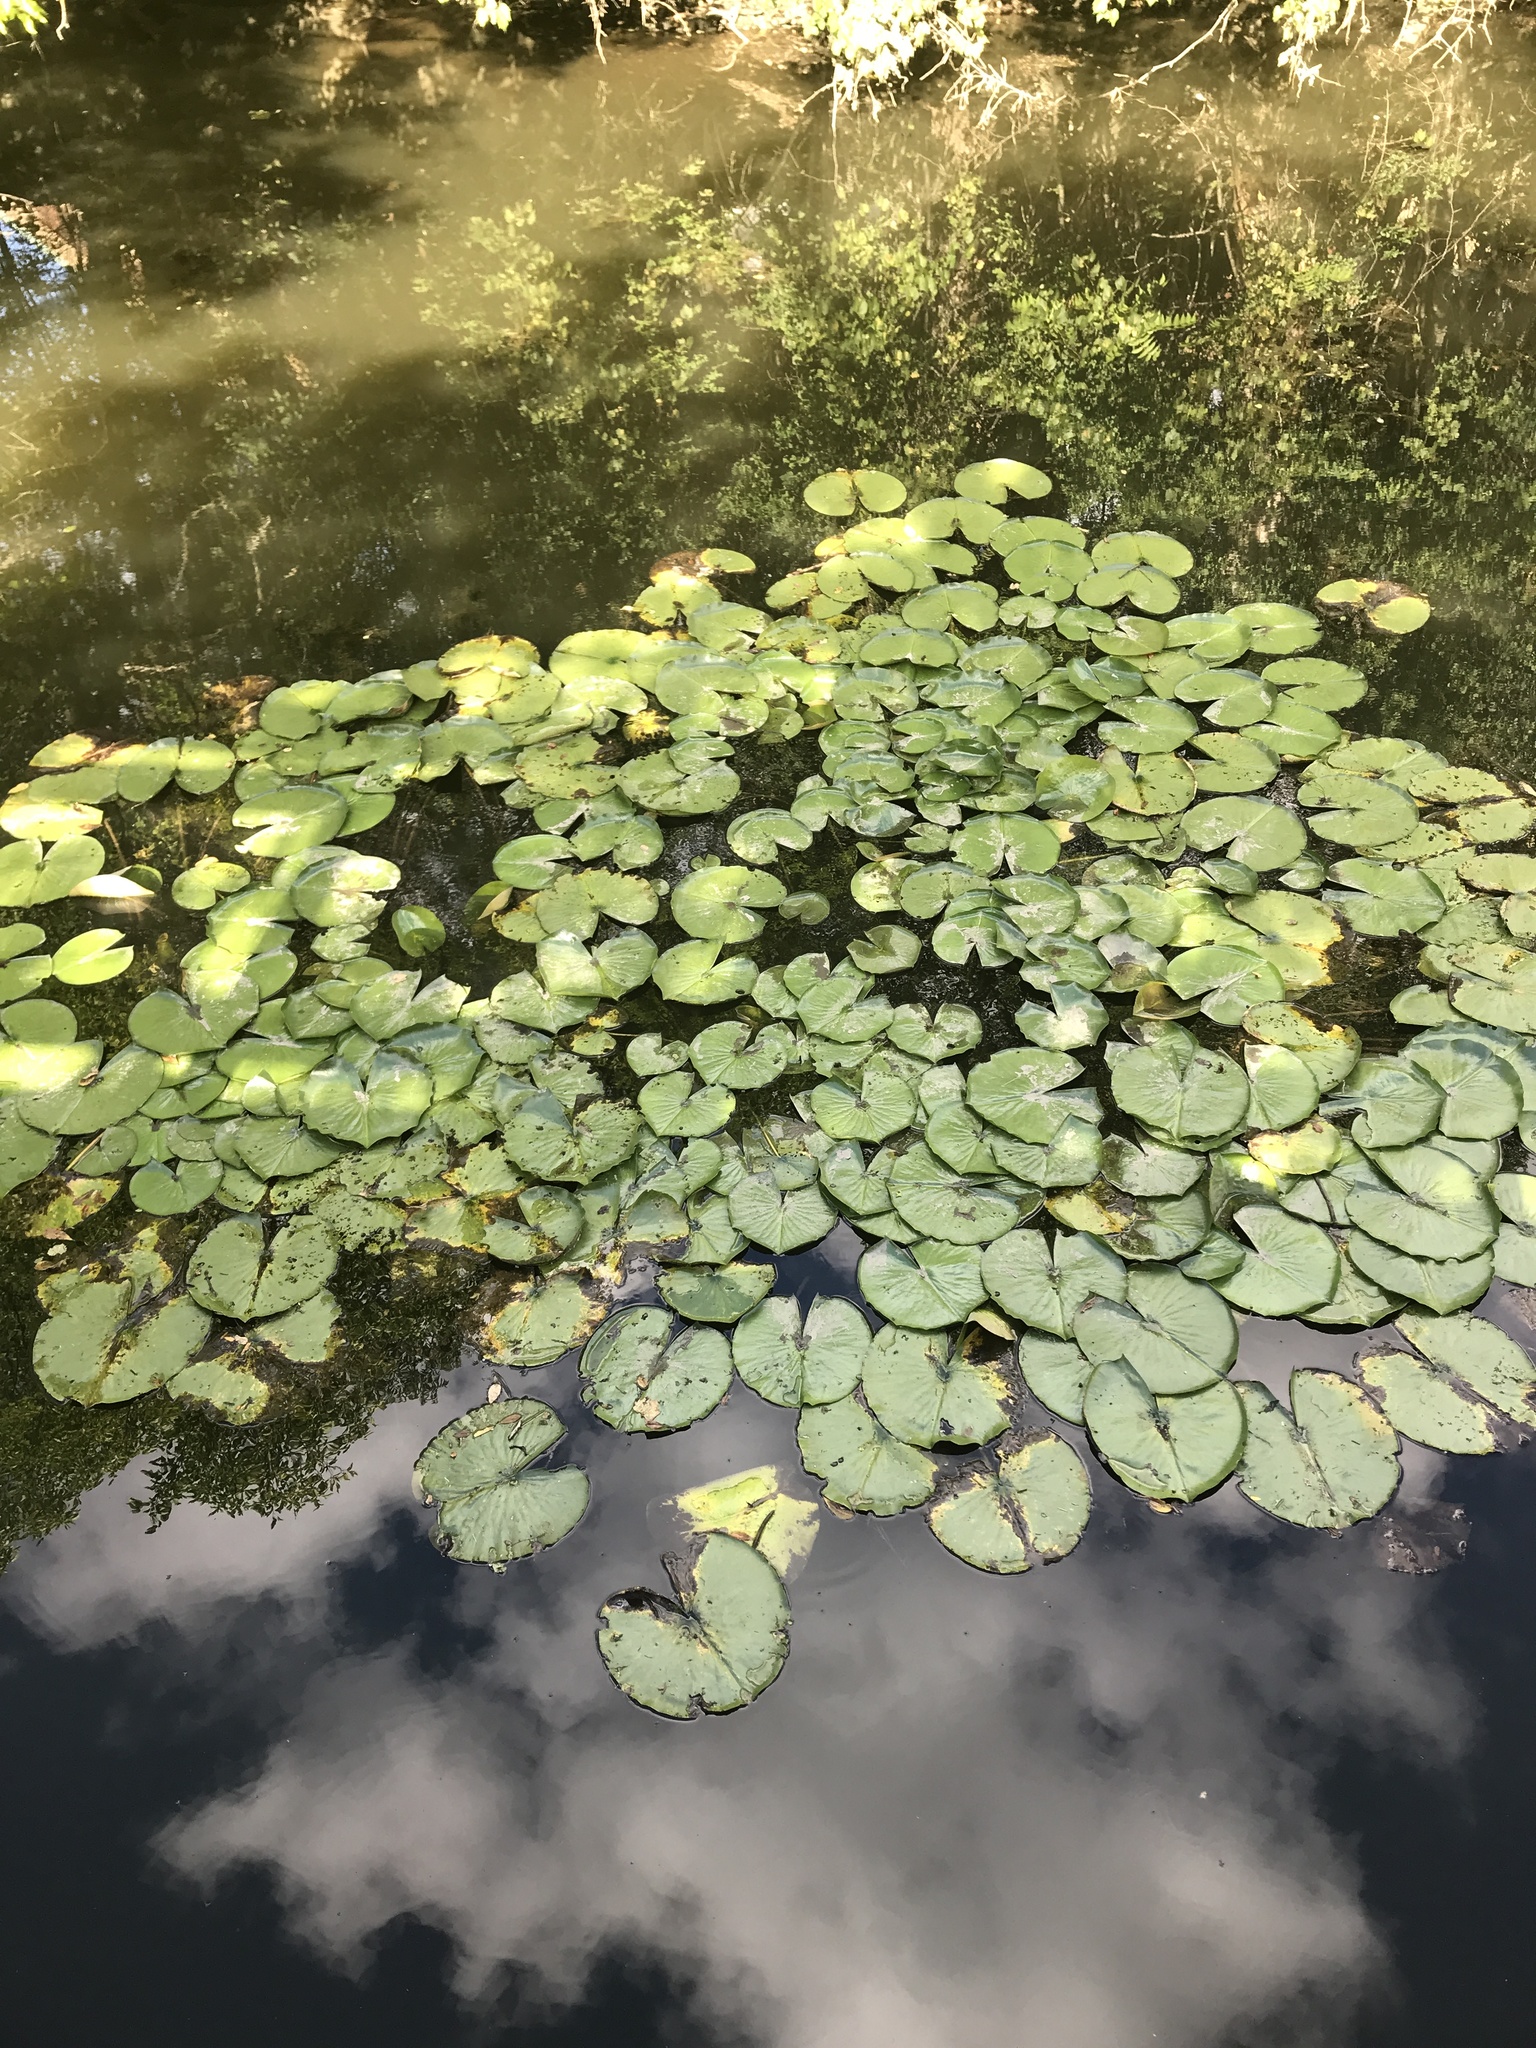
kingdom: Plantae
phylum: Tracheophyta
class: Magnoliopsida
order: Nymphaeales
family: Nymphaeaceae
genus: Nymphaea
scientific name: Nymphaea odorata
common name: Fragrant water-lily
